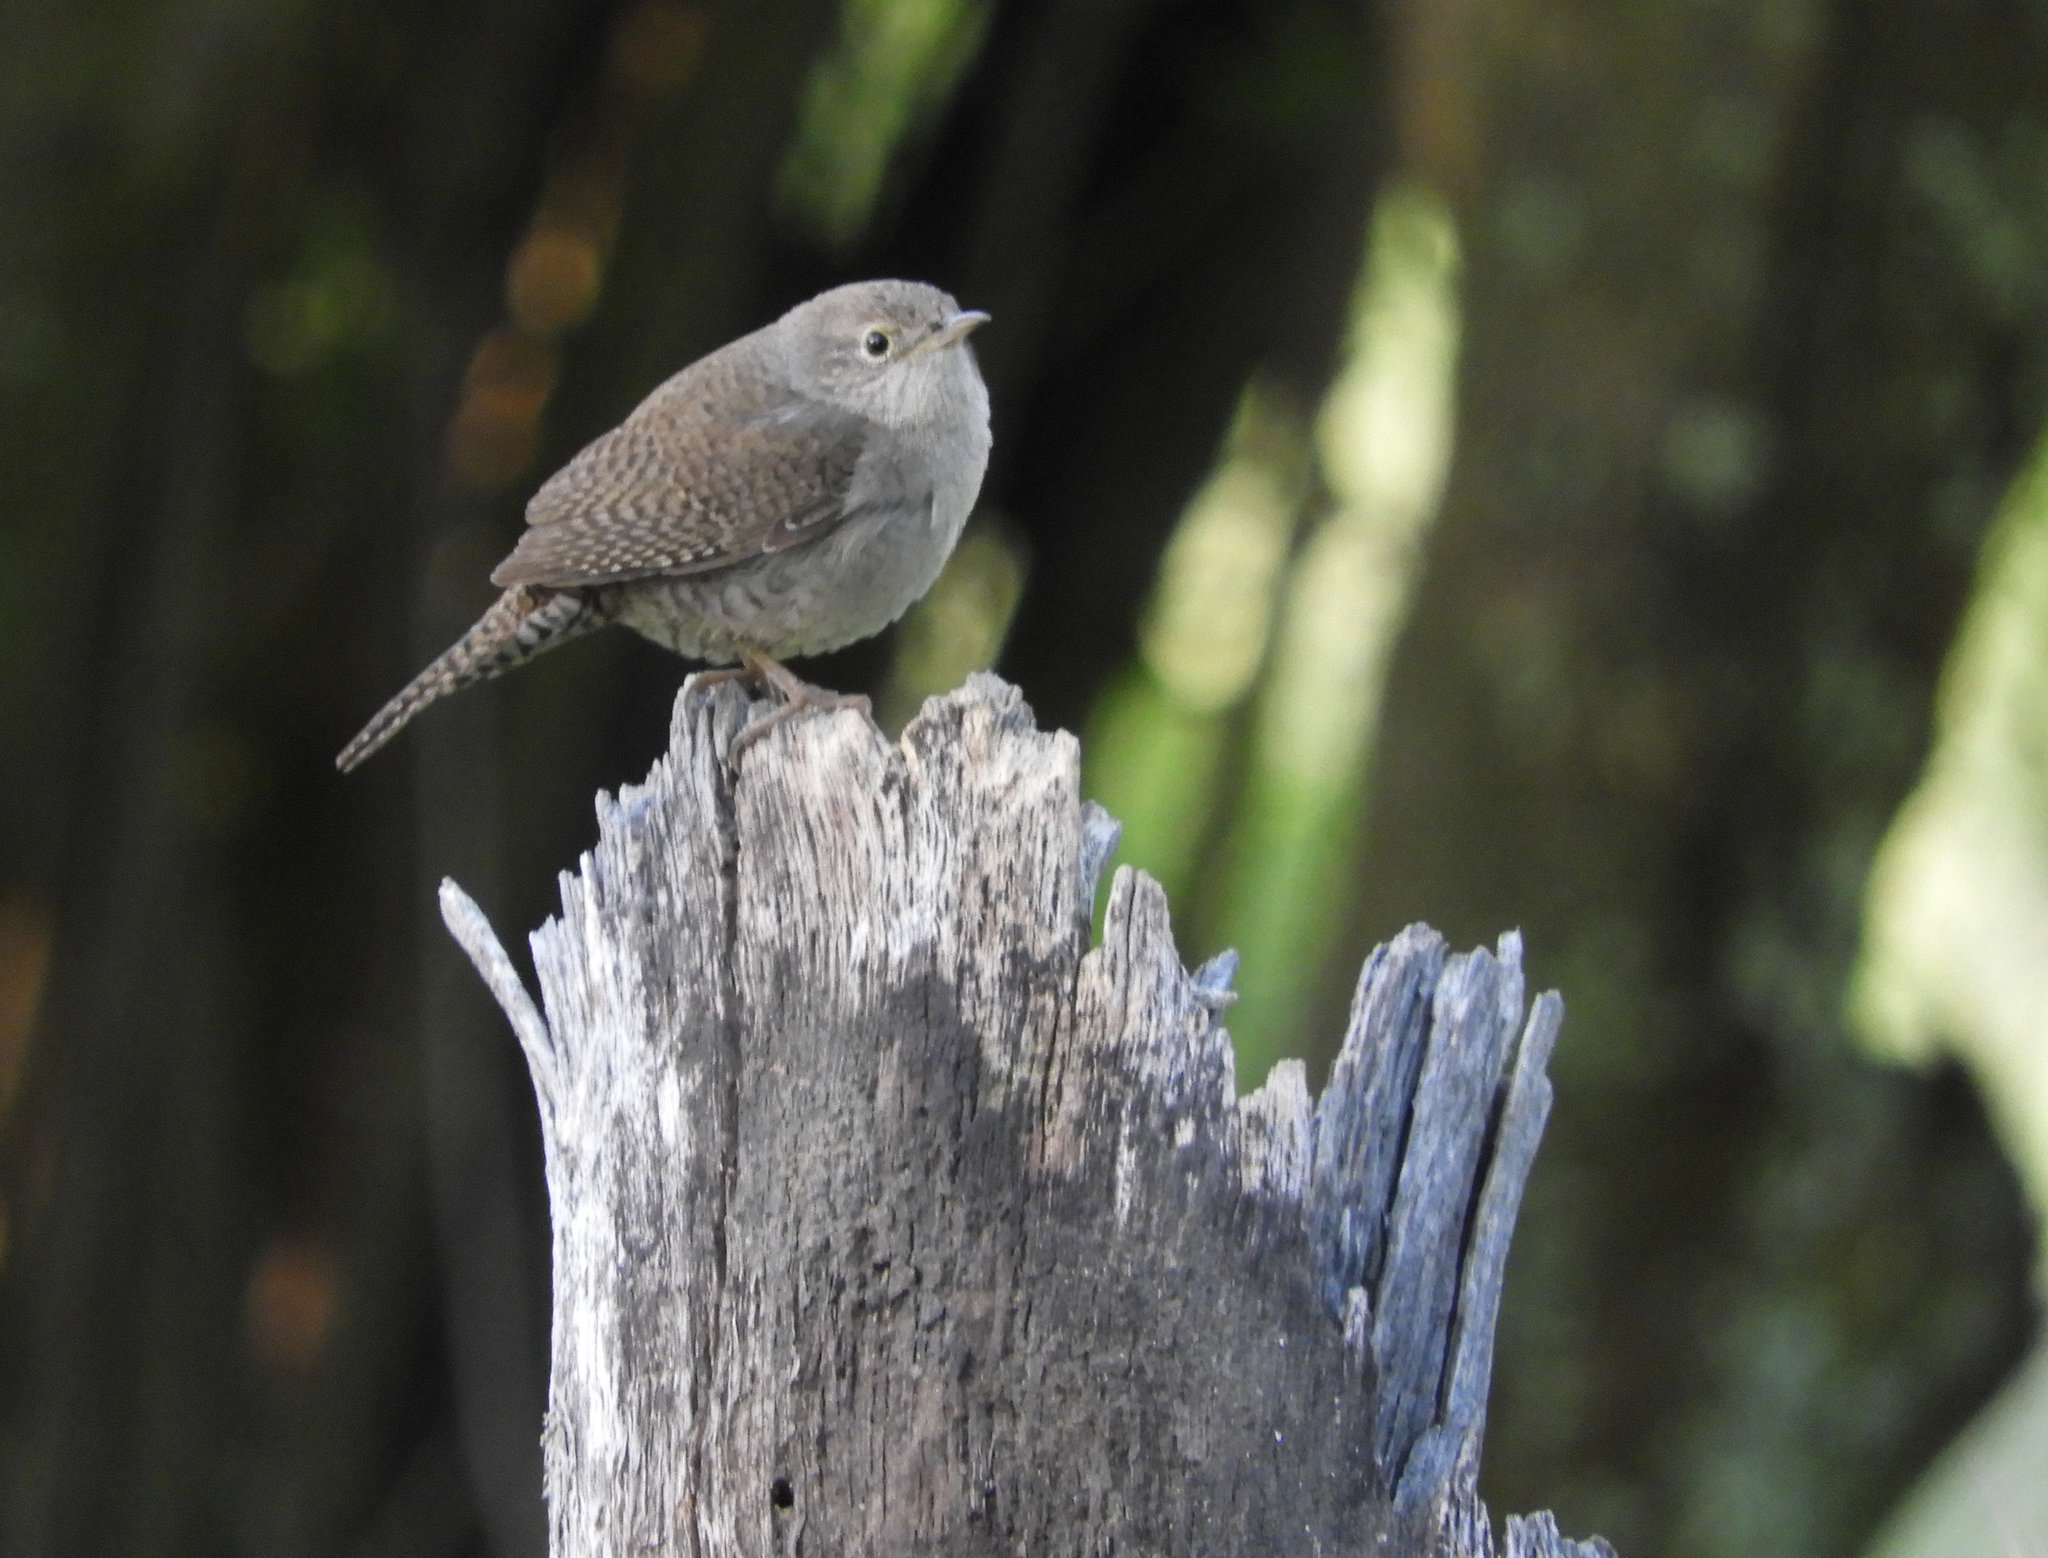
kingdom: Animalia
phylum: Chordata
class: Aves
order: Passeriformes
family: Troglodytidae
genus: Troglodytes
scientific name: Troglodytes aedon
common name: House wren
